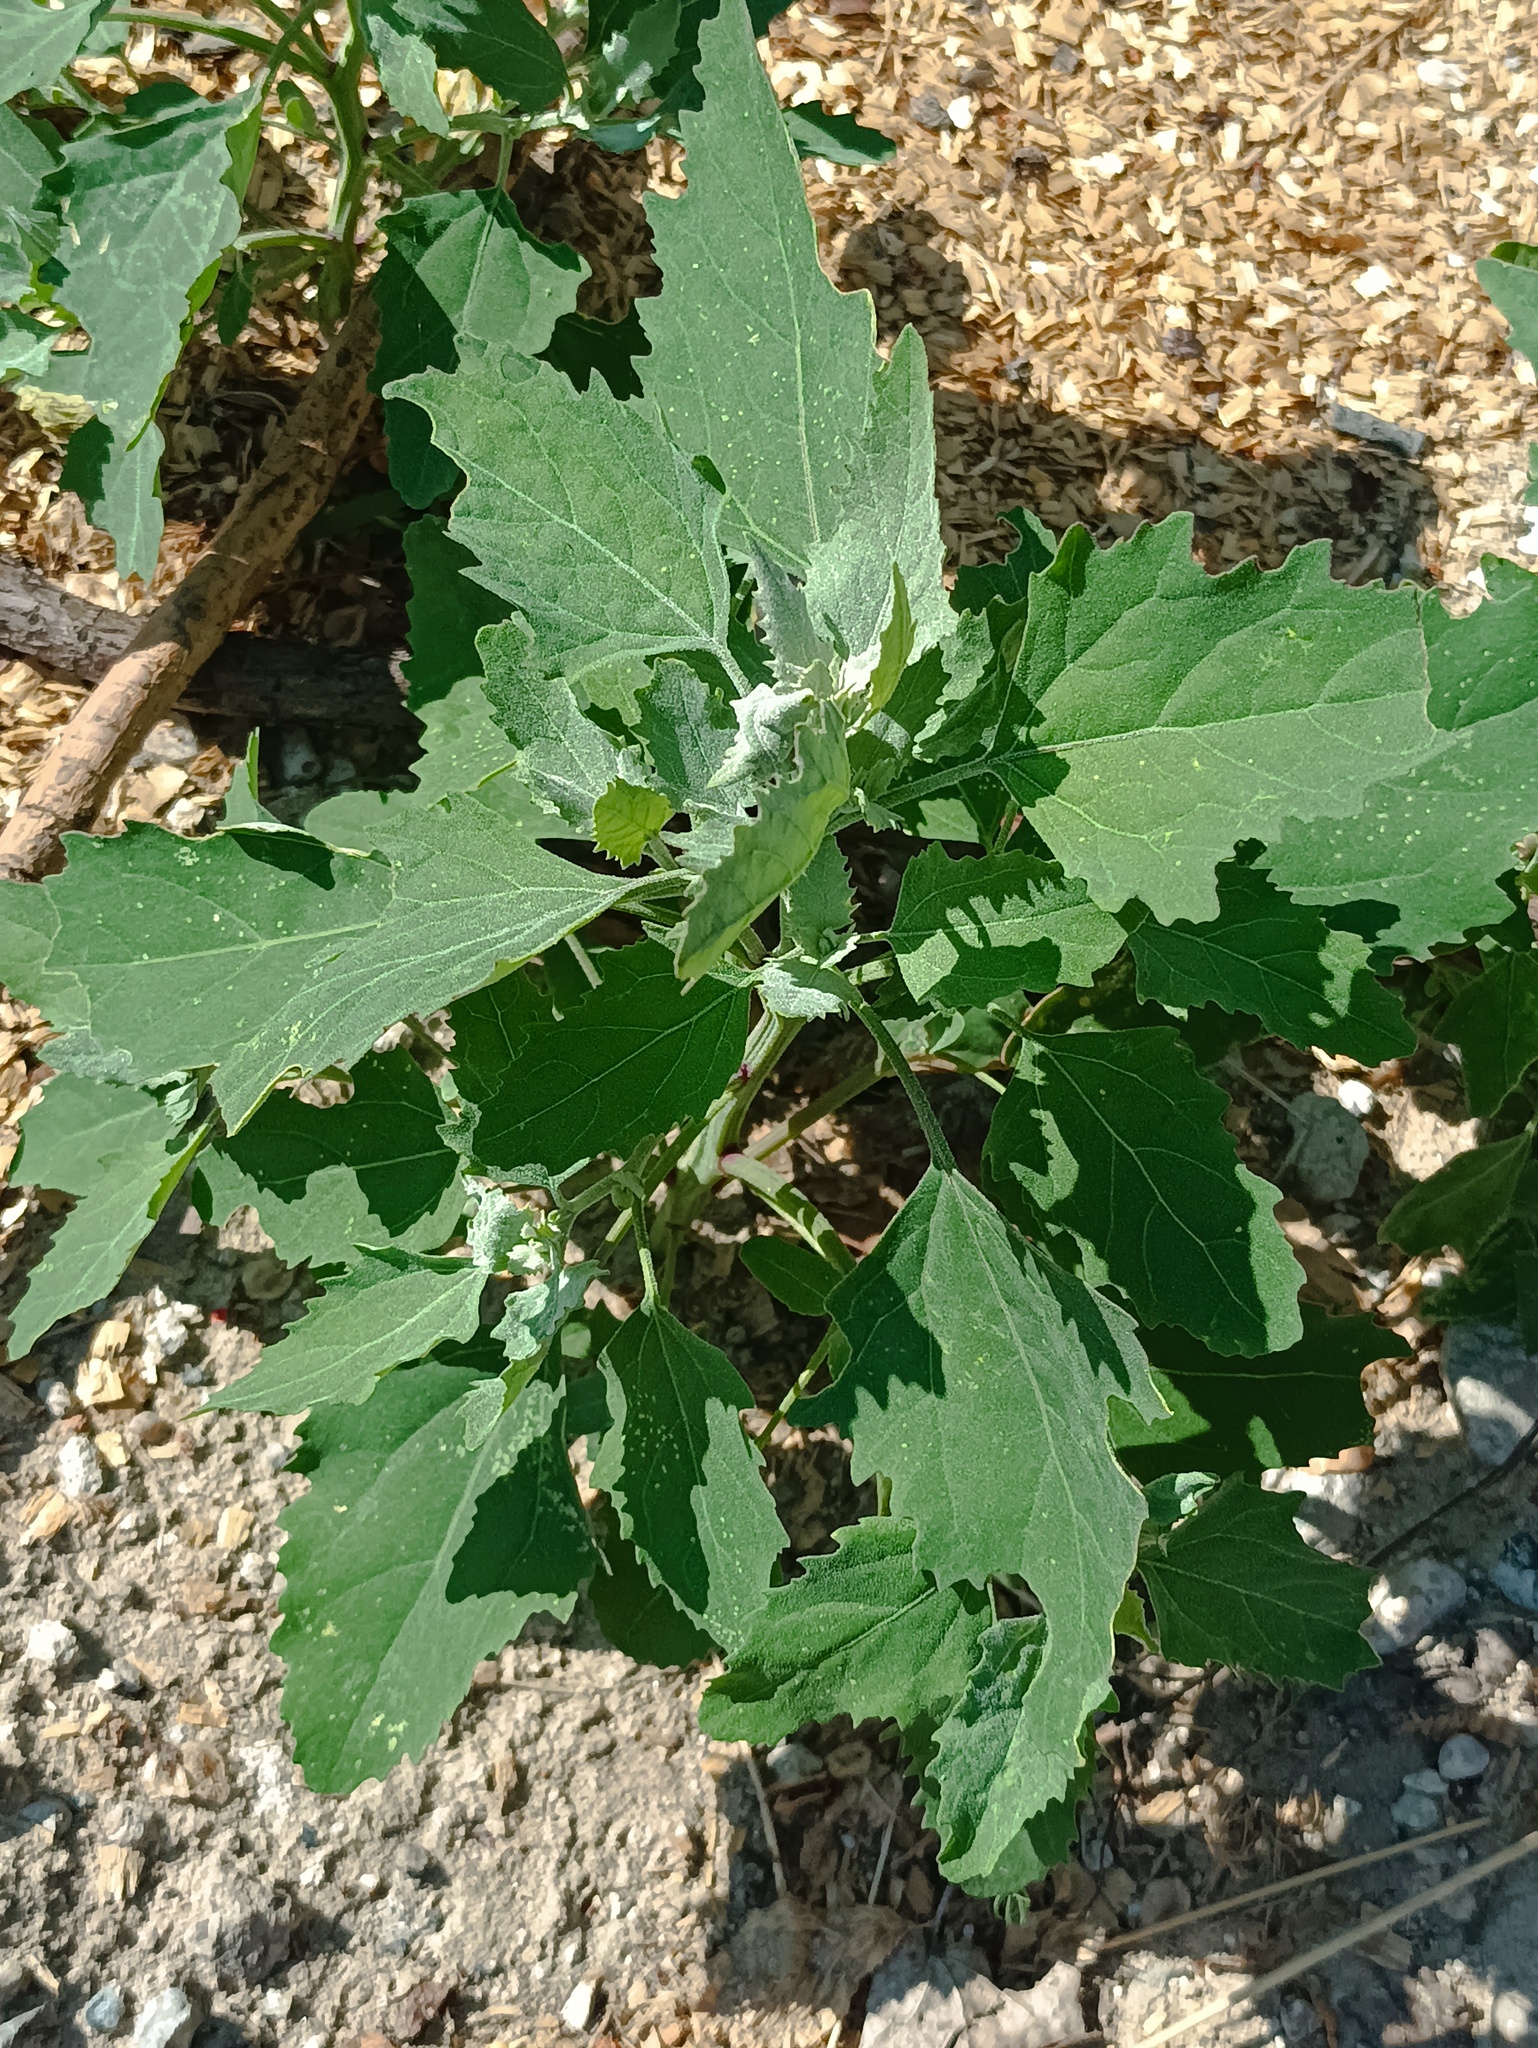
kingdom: Plantae
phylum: Tracheophyta
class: Magnoliopsida
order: Caryophyllales
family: Amaranthaceae
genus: Chenopodium
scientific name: Chenopodium album
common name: Fat-hen
